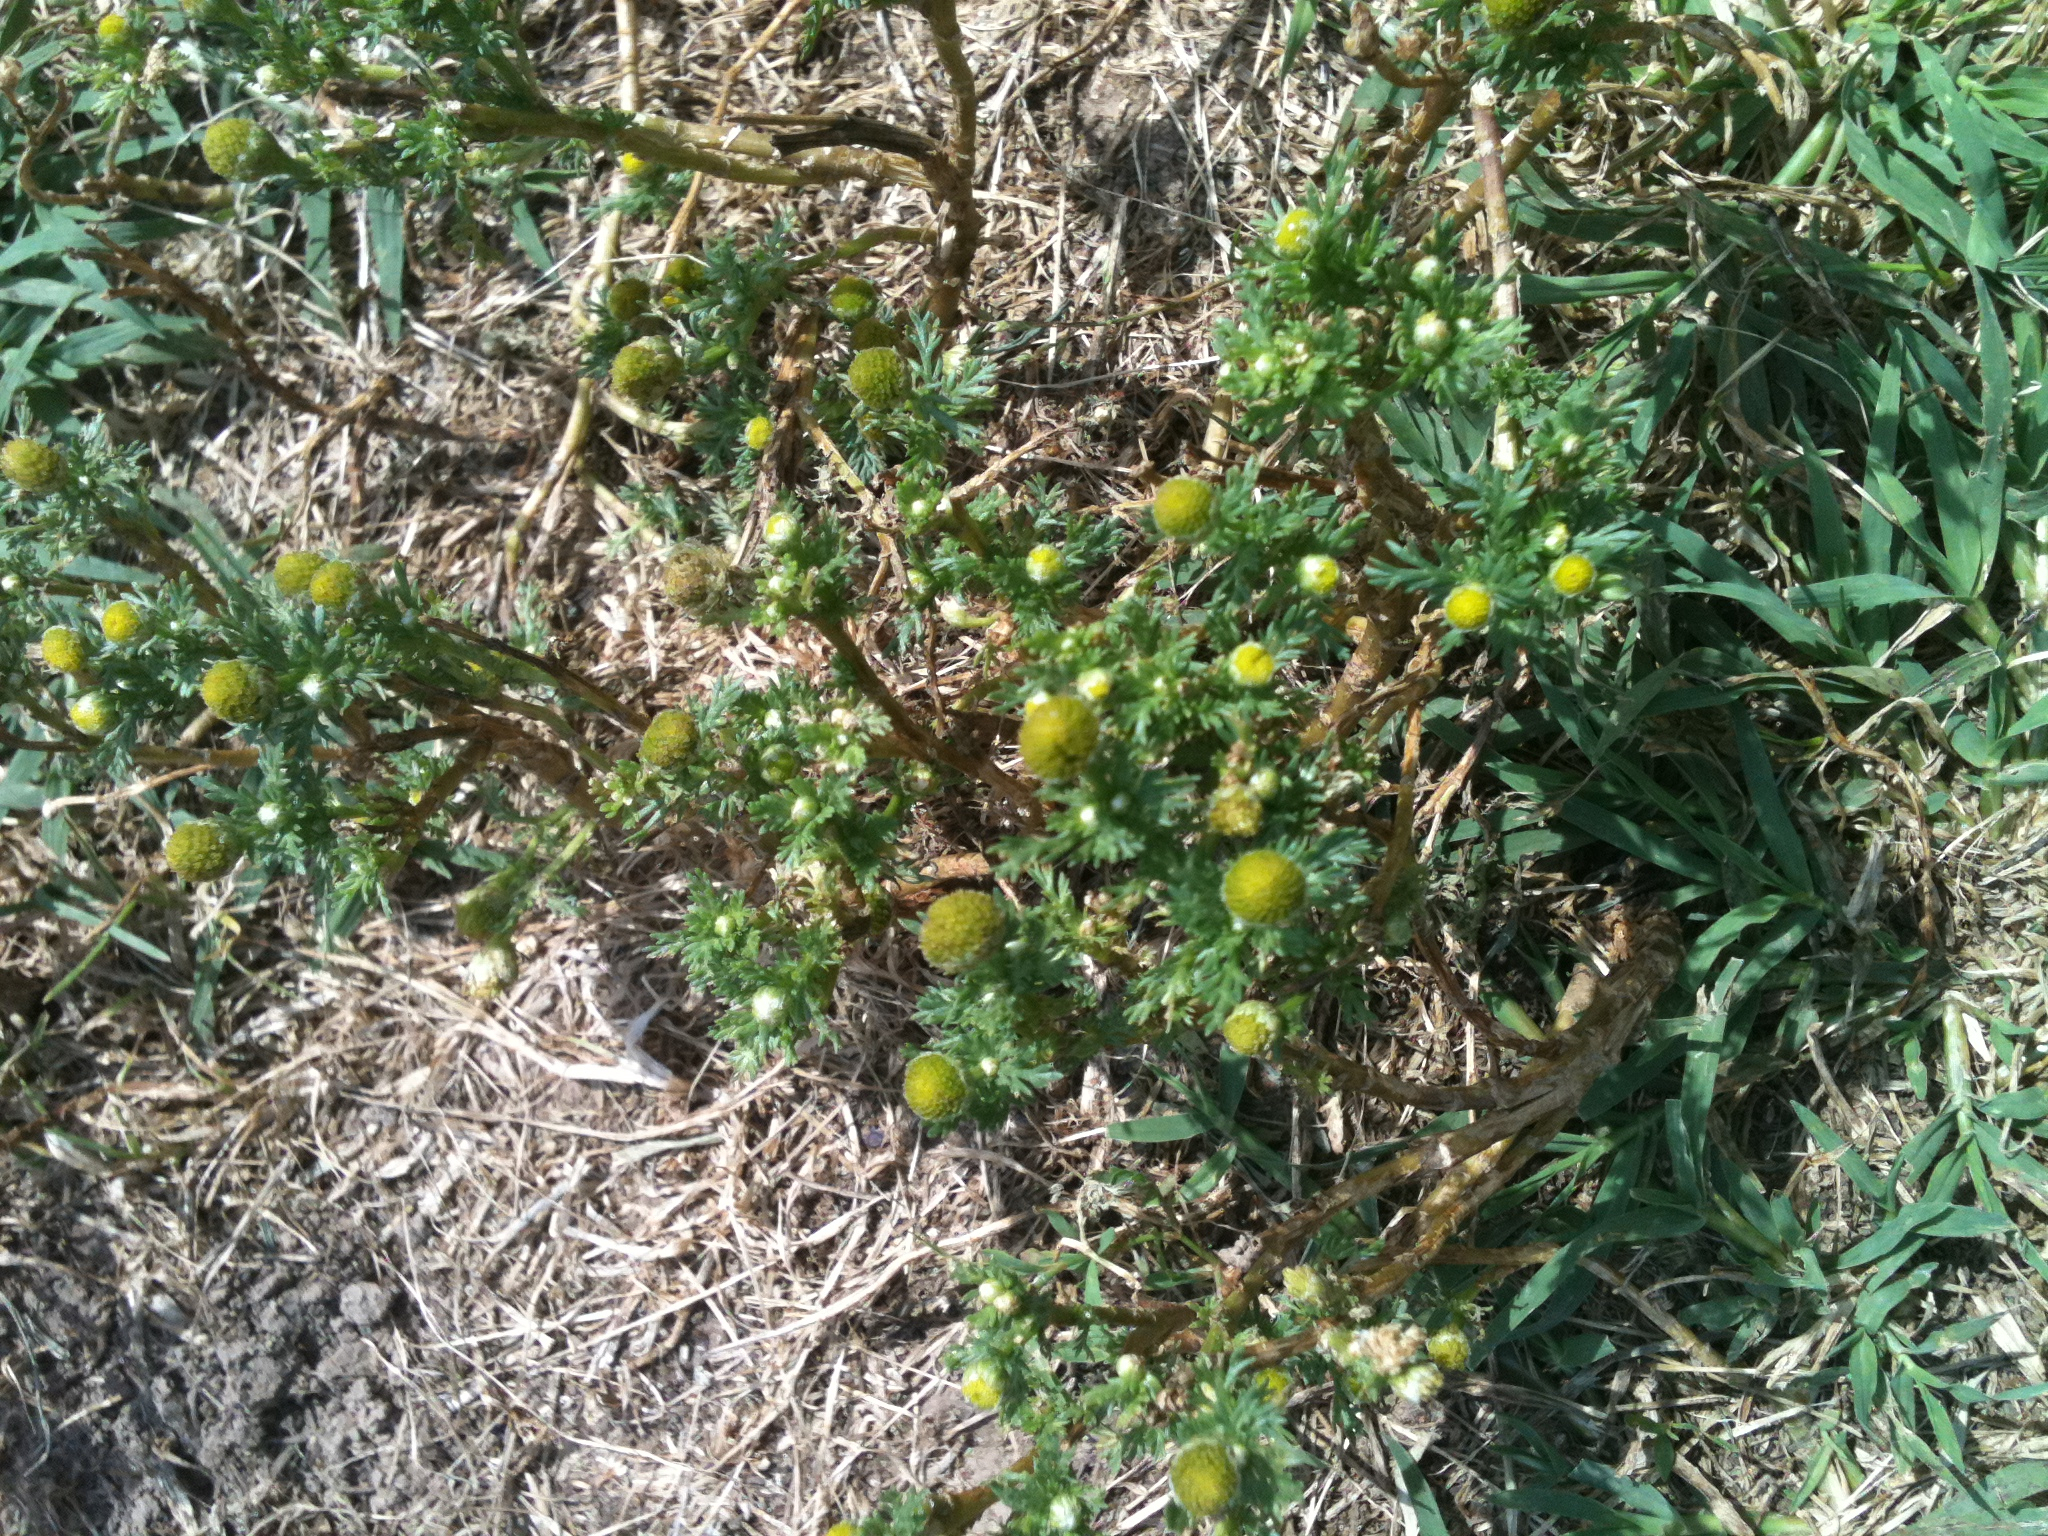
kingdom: Plantae
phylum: Tracheophyta
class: Magnoliopsida
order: Asterales
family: Asteraceae
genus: Matricaria
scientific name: Matricaria discoidea
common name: Disc mayweed
